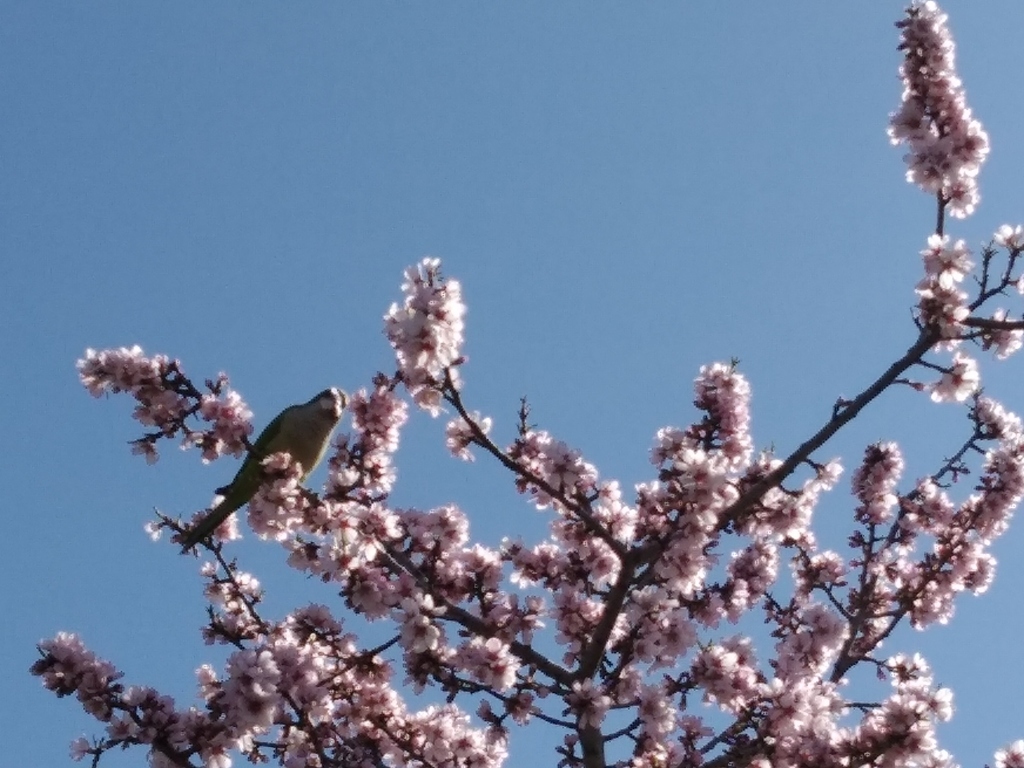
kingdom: Animalia
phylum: Chordata
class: Aves
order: Psittaciformes
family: Psittacidae
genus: Myiopsitta
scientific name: Myiopsitta monachus
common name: Monk parakeet
